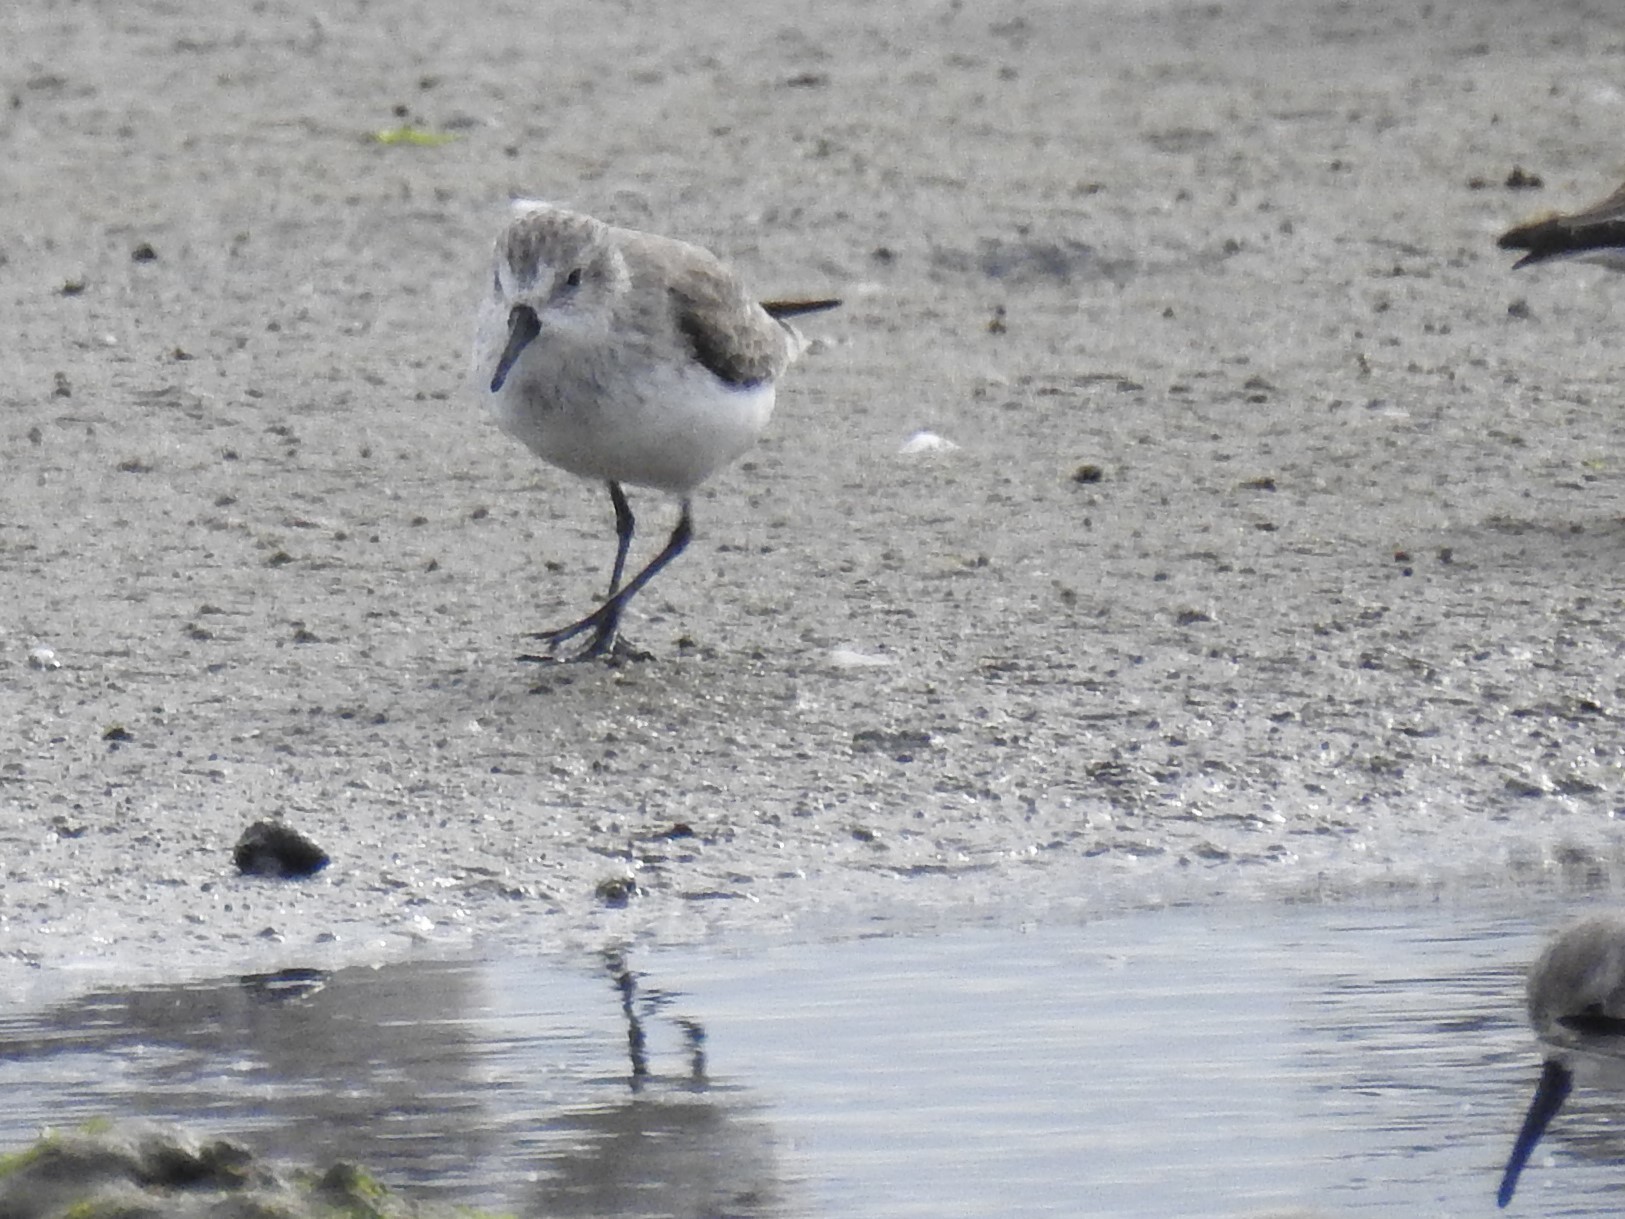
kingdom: Animalia
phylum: Chordata
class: Aves
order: Charadriiformes
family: Scolopacidae
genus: Calidris
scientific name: Calidris mauri
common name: Western sandpiper
